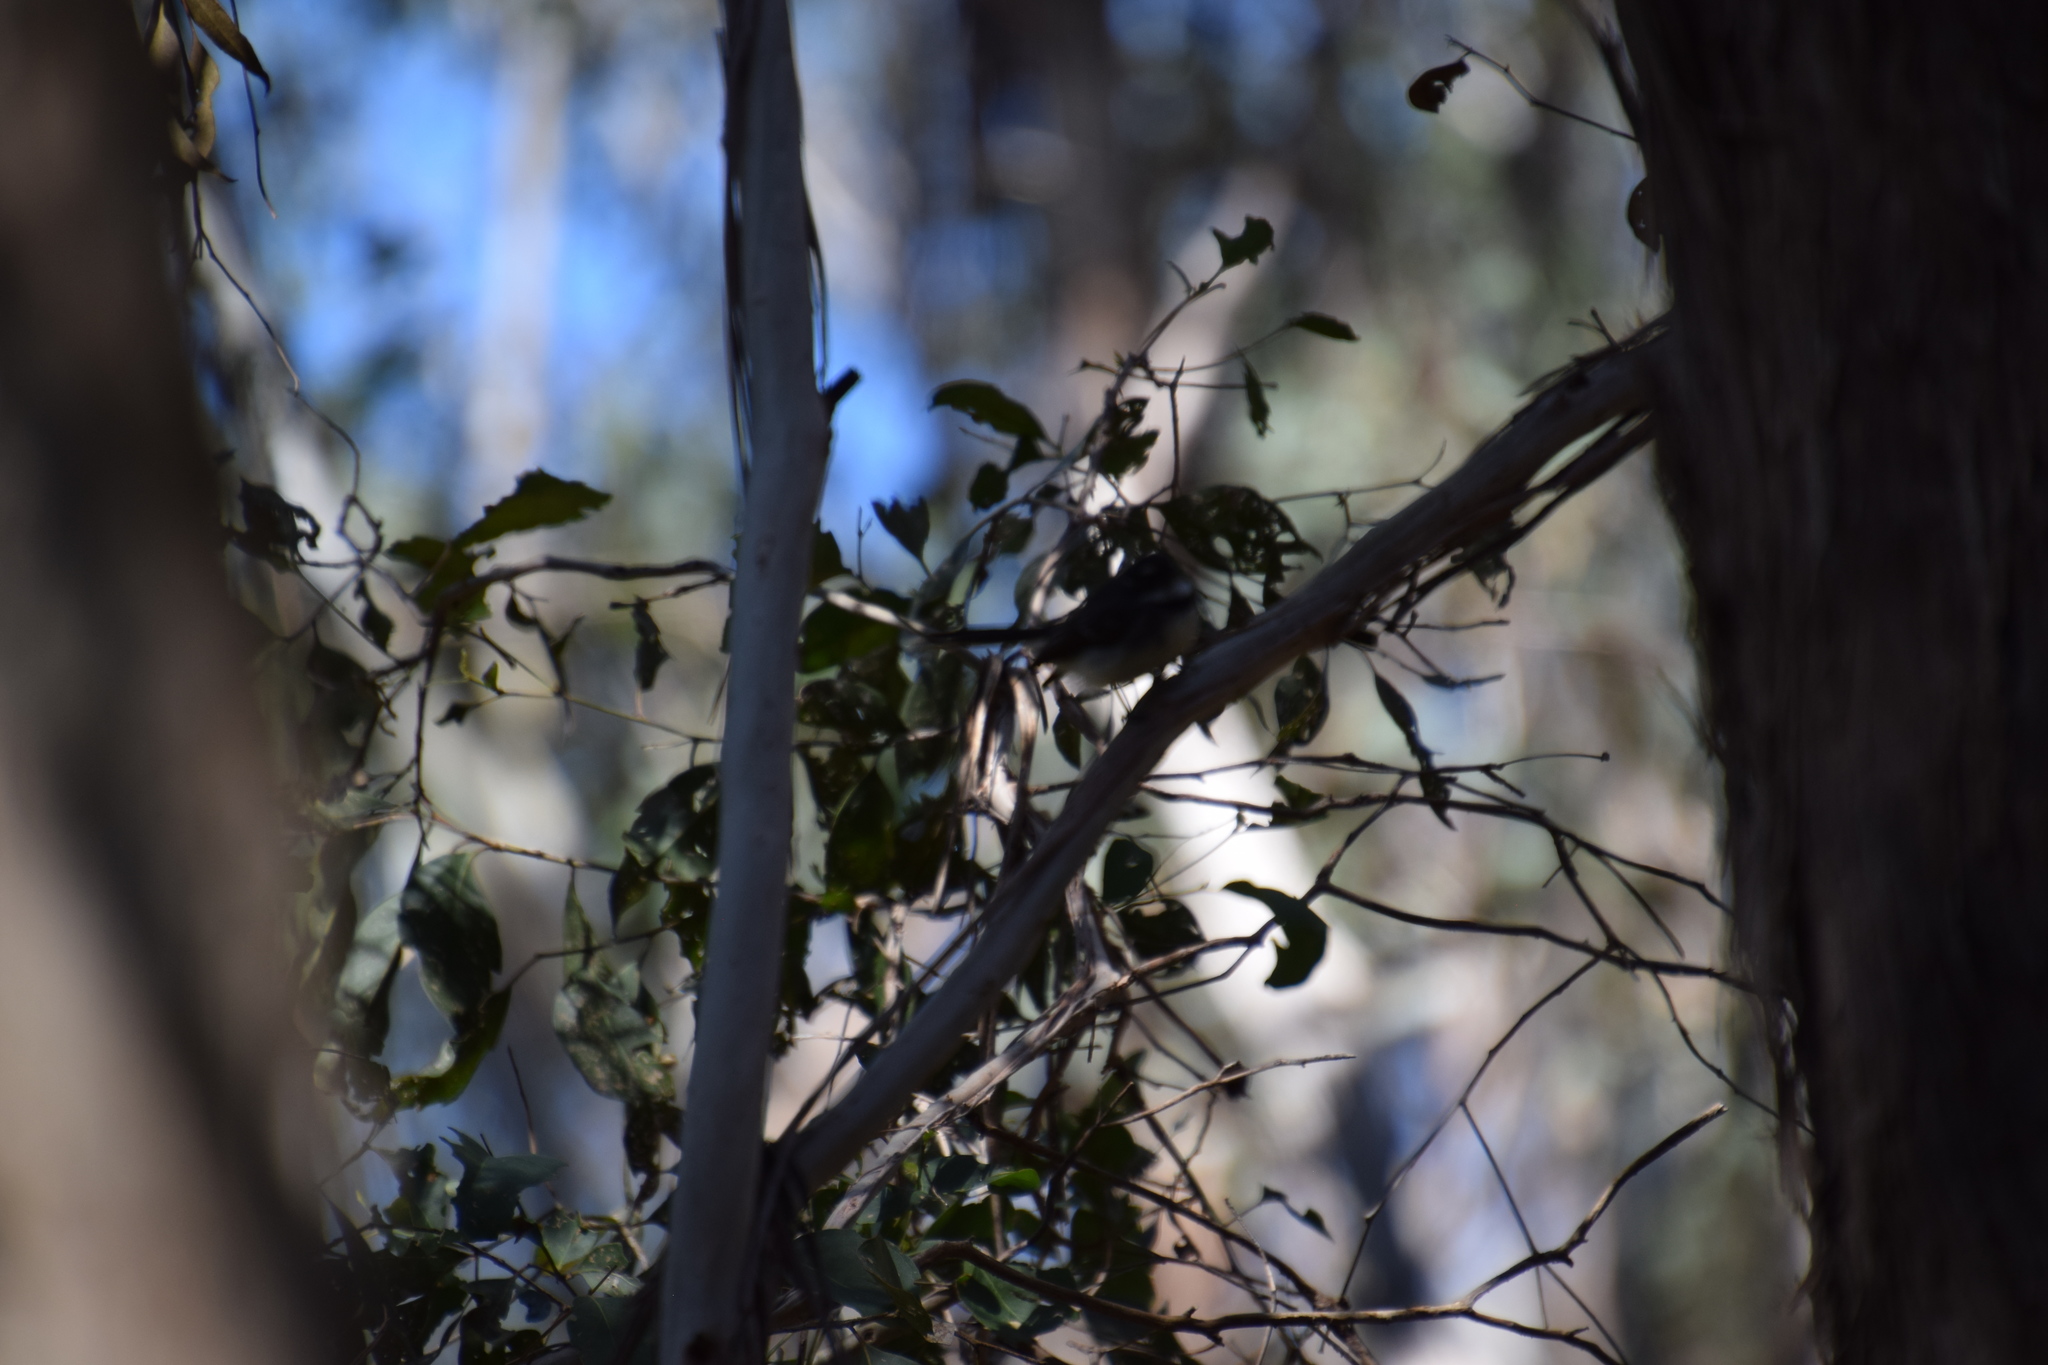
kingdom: Animalia
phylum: Chordata
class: Aves
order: Passeriformes
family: Rhipiduridae
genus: Rhipidura
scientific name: Rhipidura albiscapa
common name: Grey fantail
